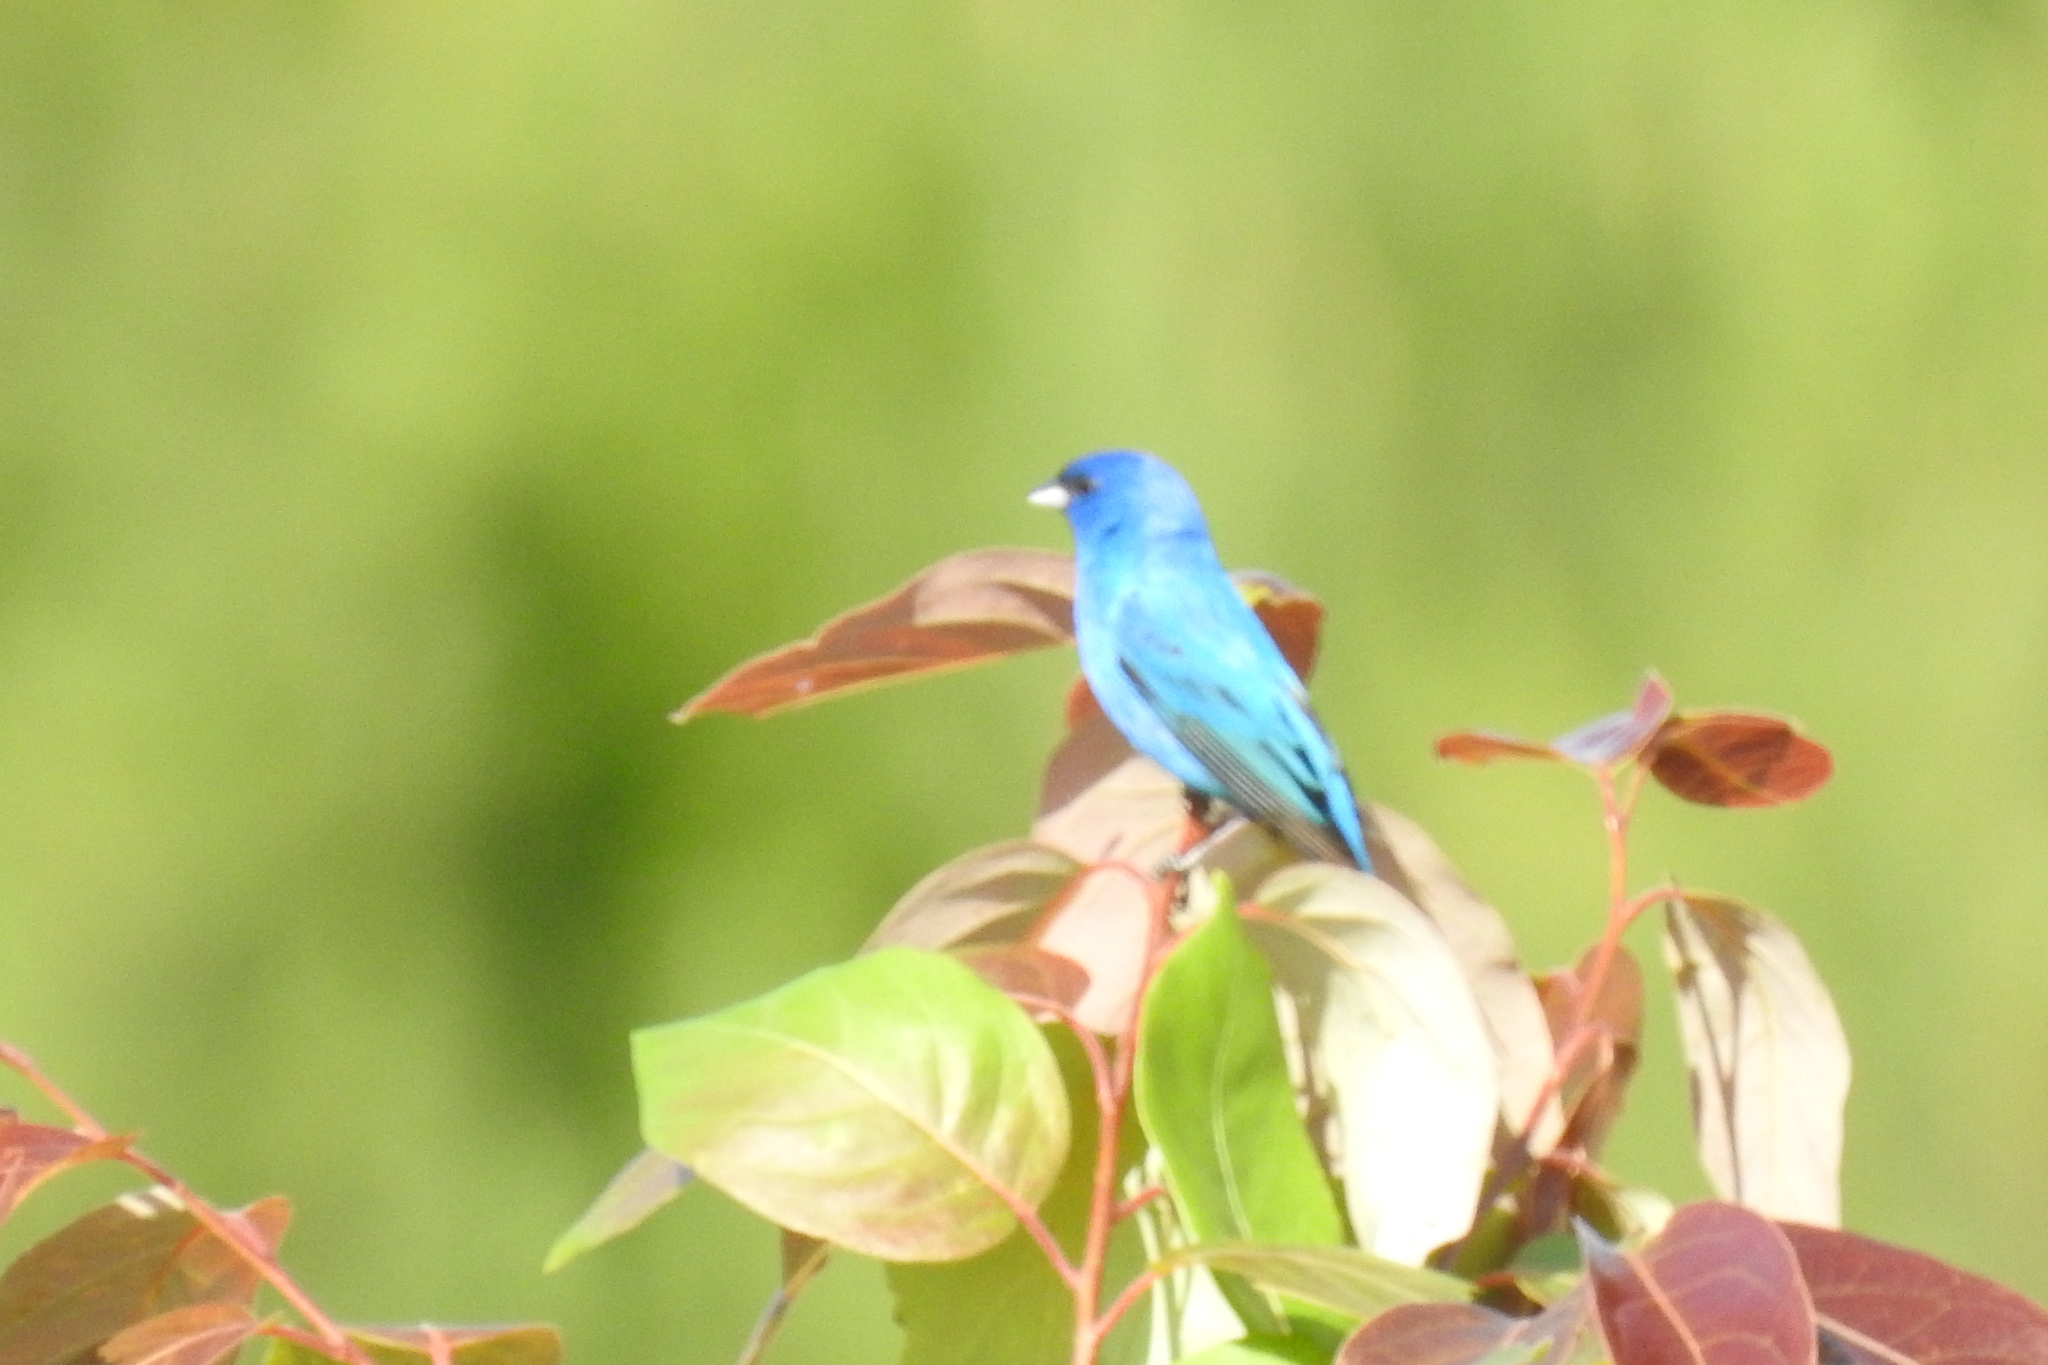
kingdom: Animalia
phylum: Chordata
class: Aves
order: Passeriformes
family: Cardinalidae
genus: Passerina
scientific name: Passerina cyanea
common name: Indigo bunting
